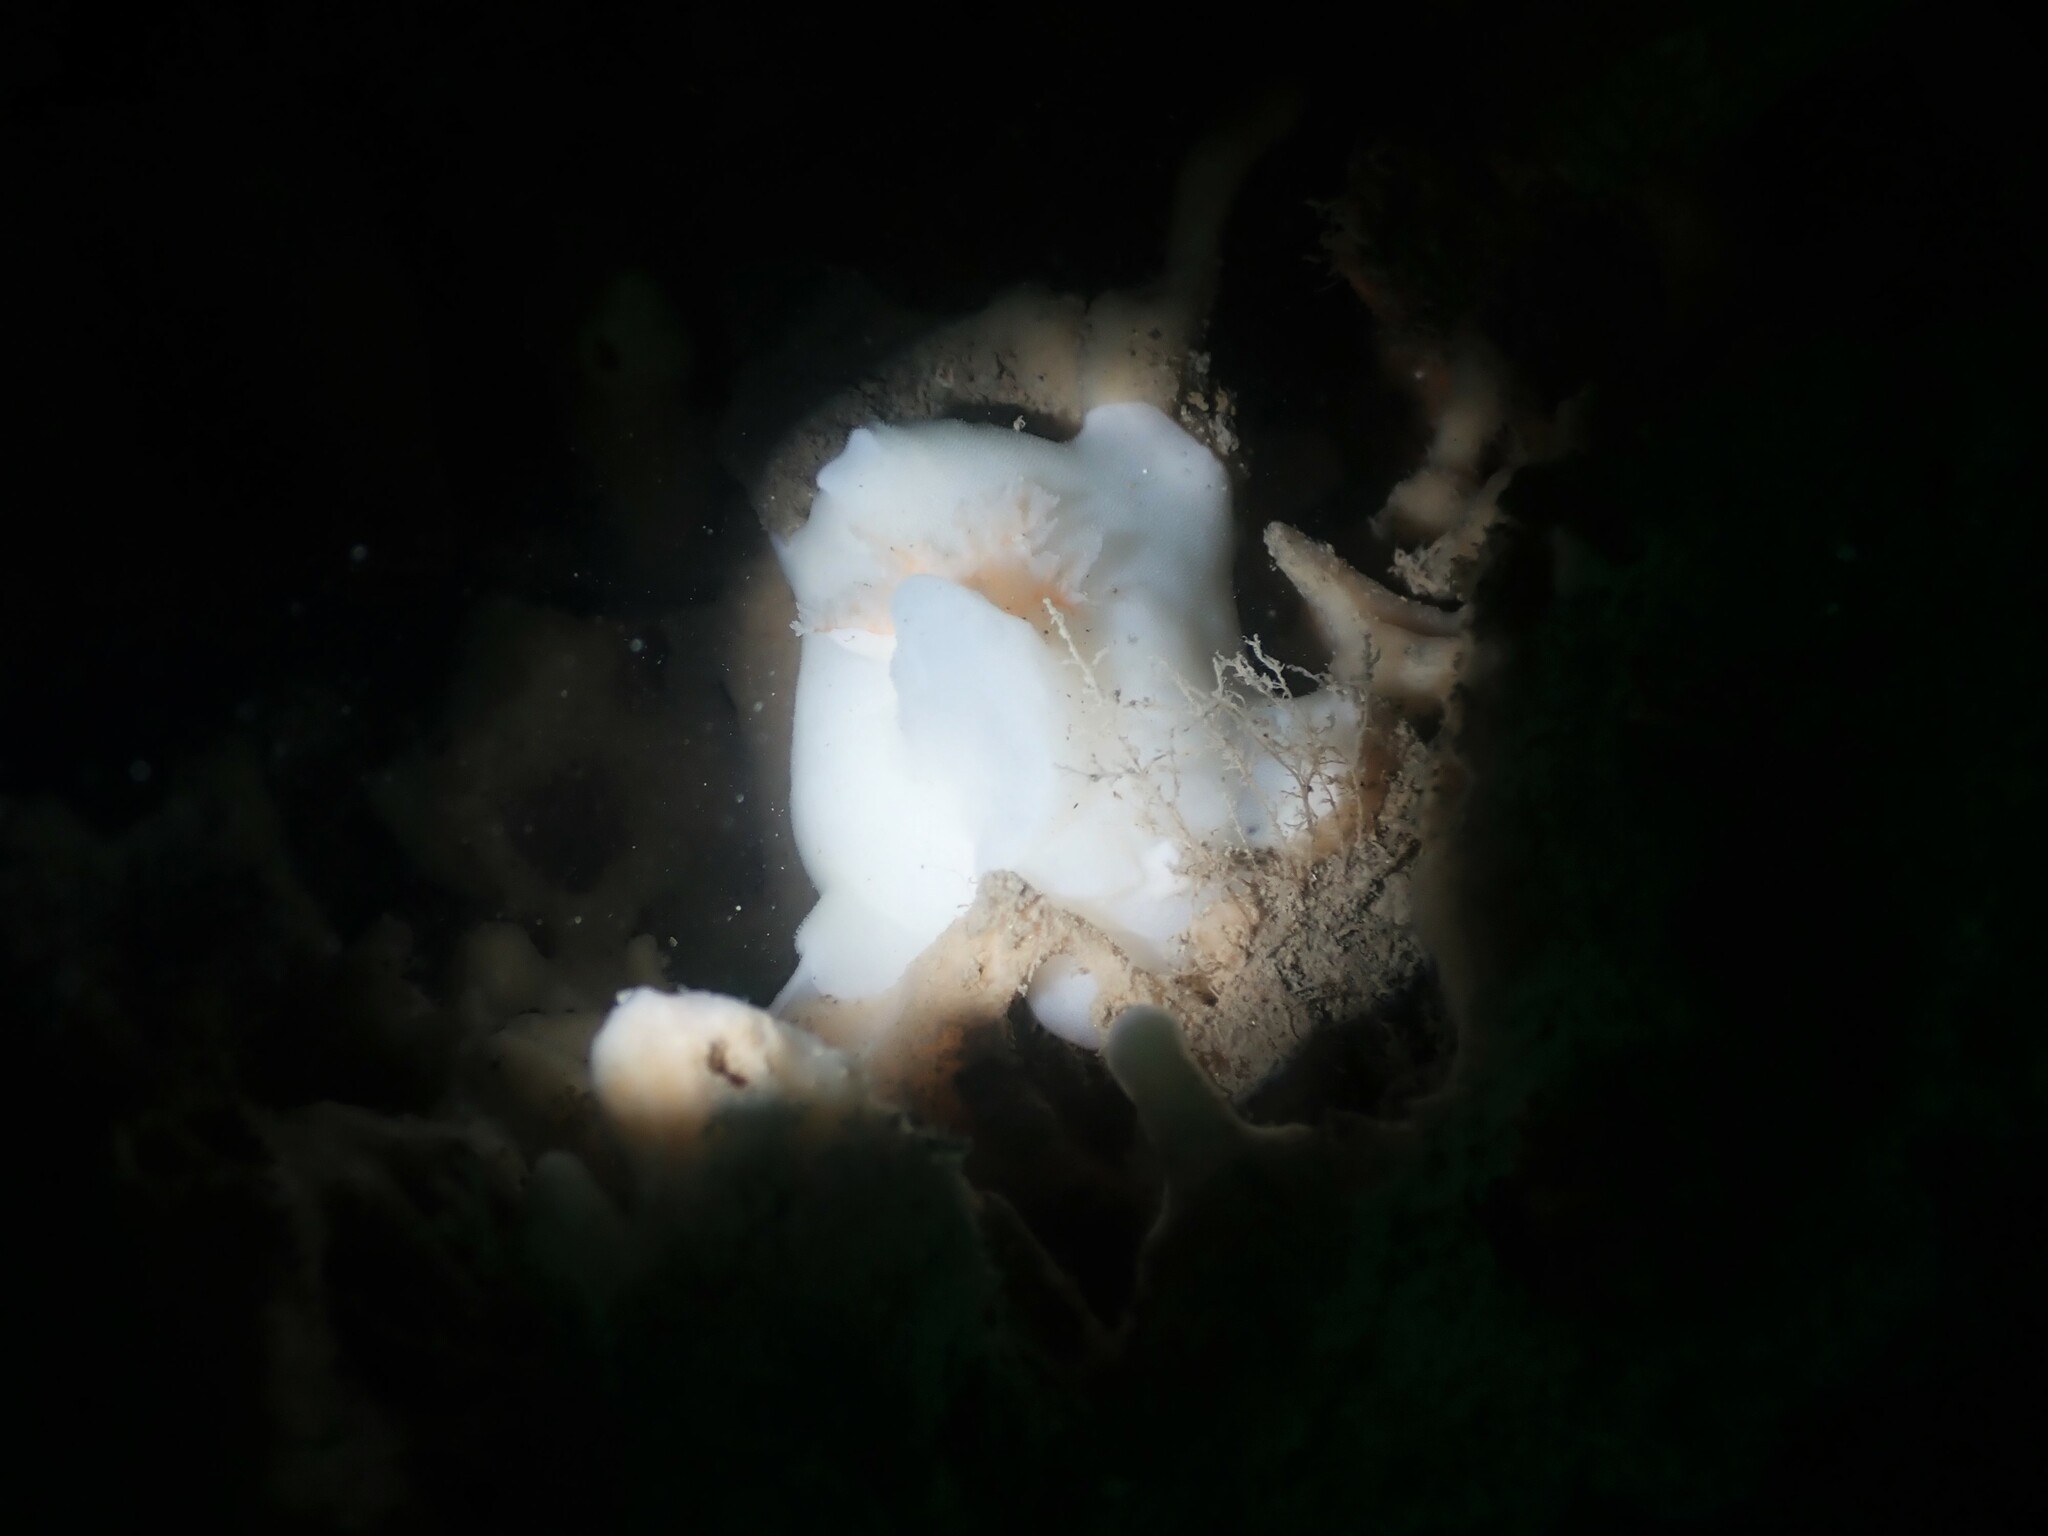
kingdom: Animalia
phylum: Mollusca
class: Gastropoda
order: Nudibranchia
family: Discodorididae
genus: Atagema
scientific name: Atagema carinata
